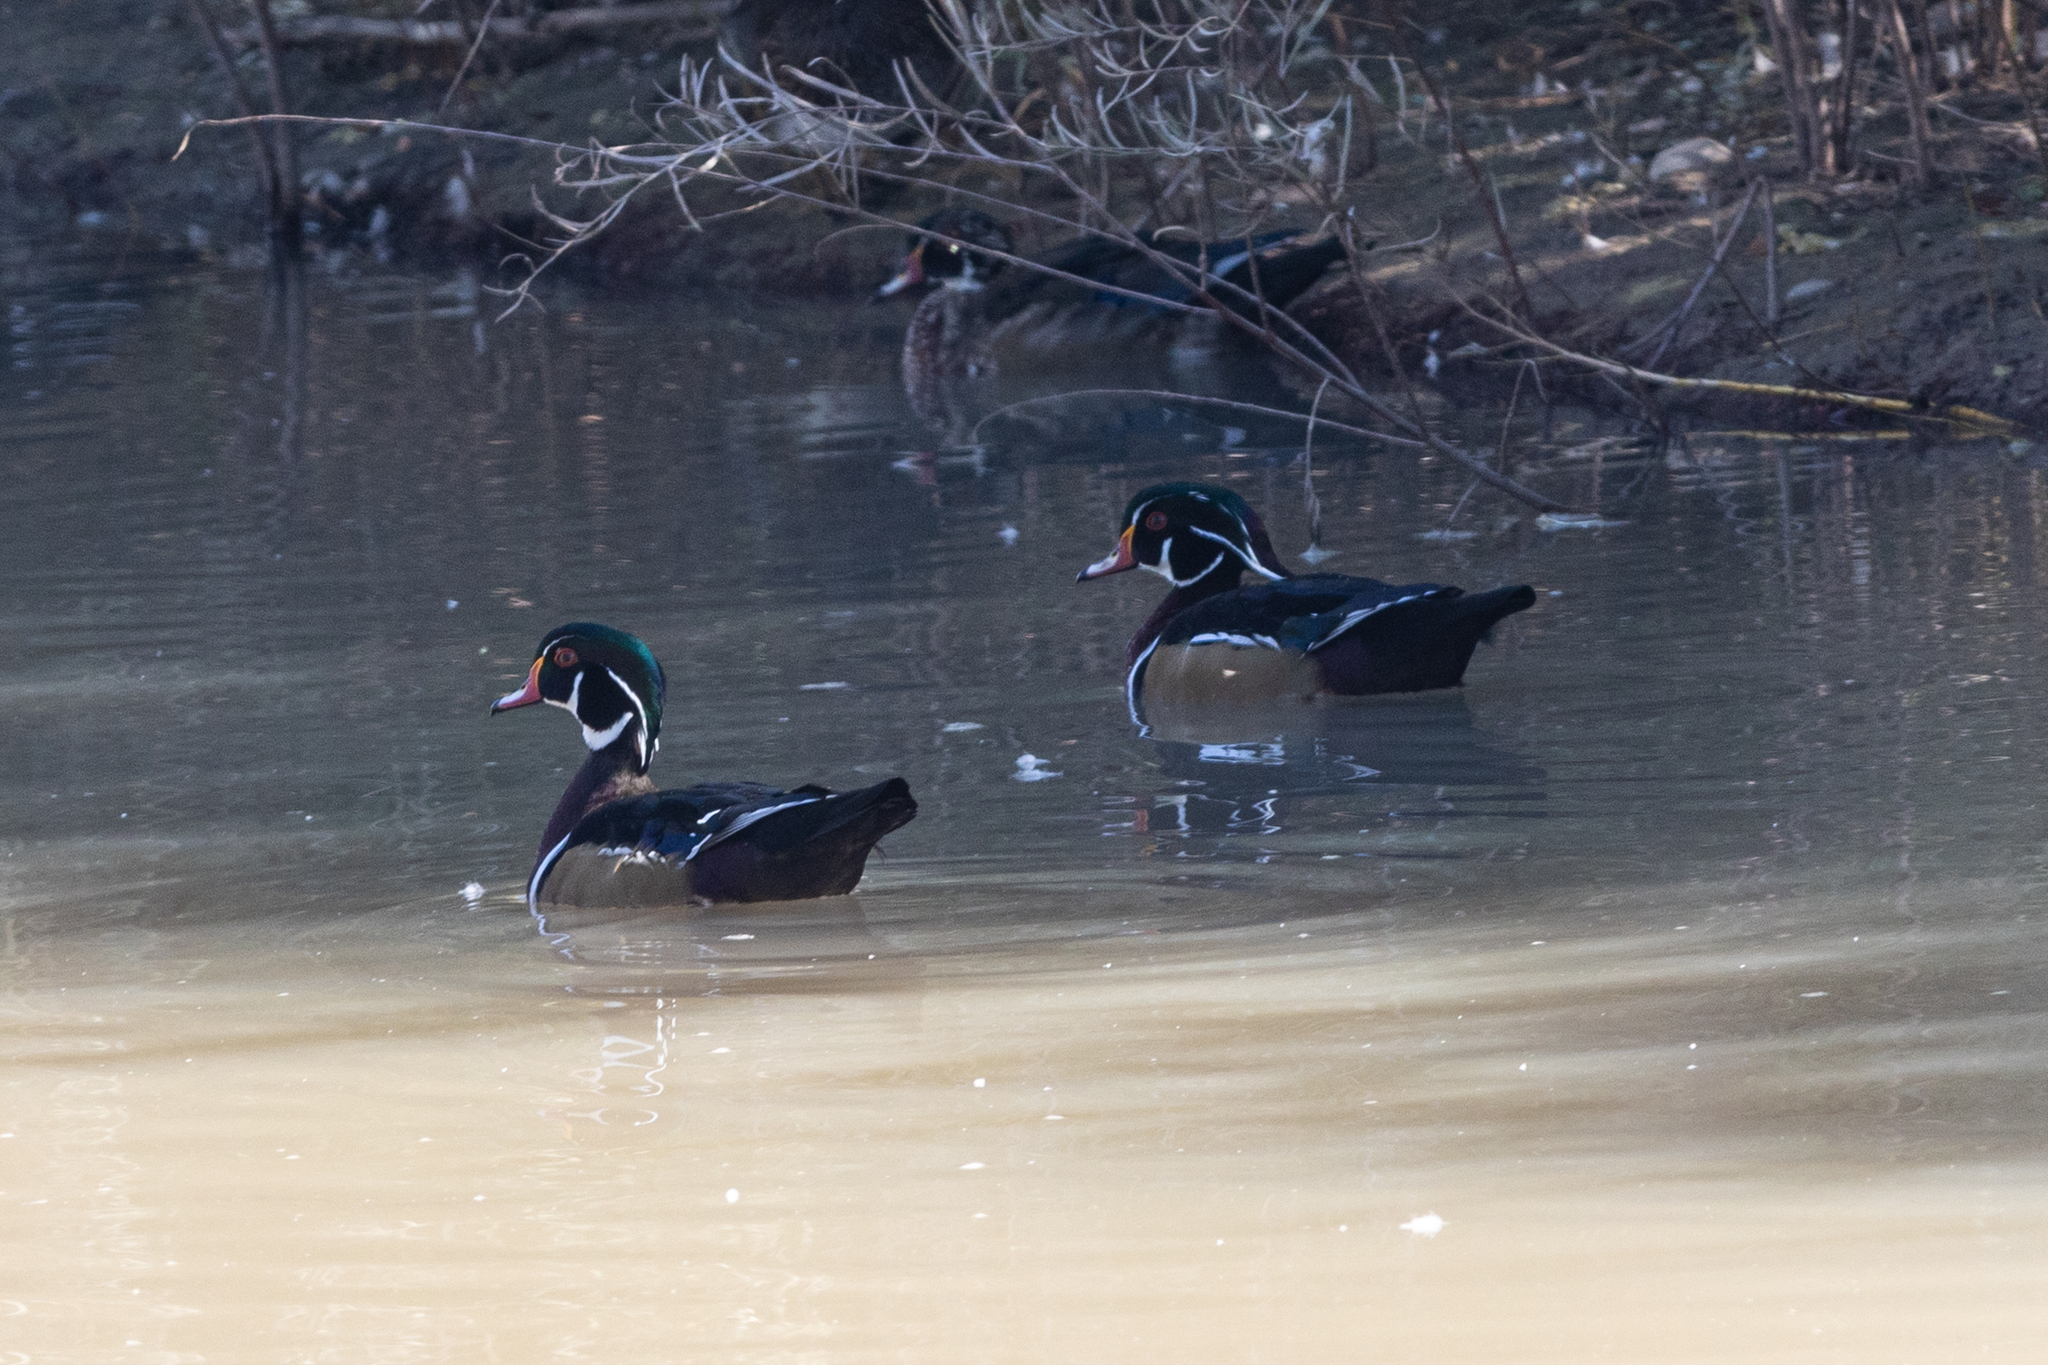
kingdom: Animalia
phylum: Chordata
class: Aves
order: Anseriformes
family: Anatidae
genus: Aix
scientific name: Aix sponsa
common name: Wood duck
